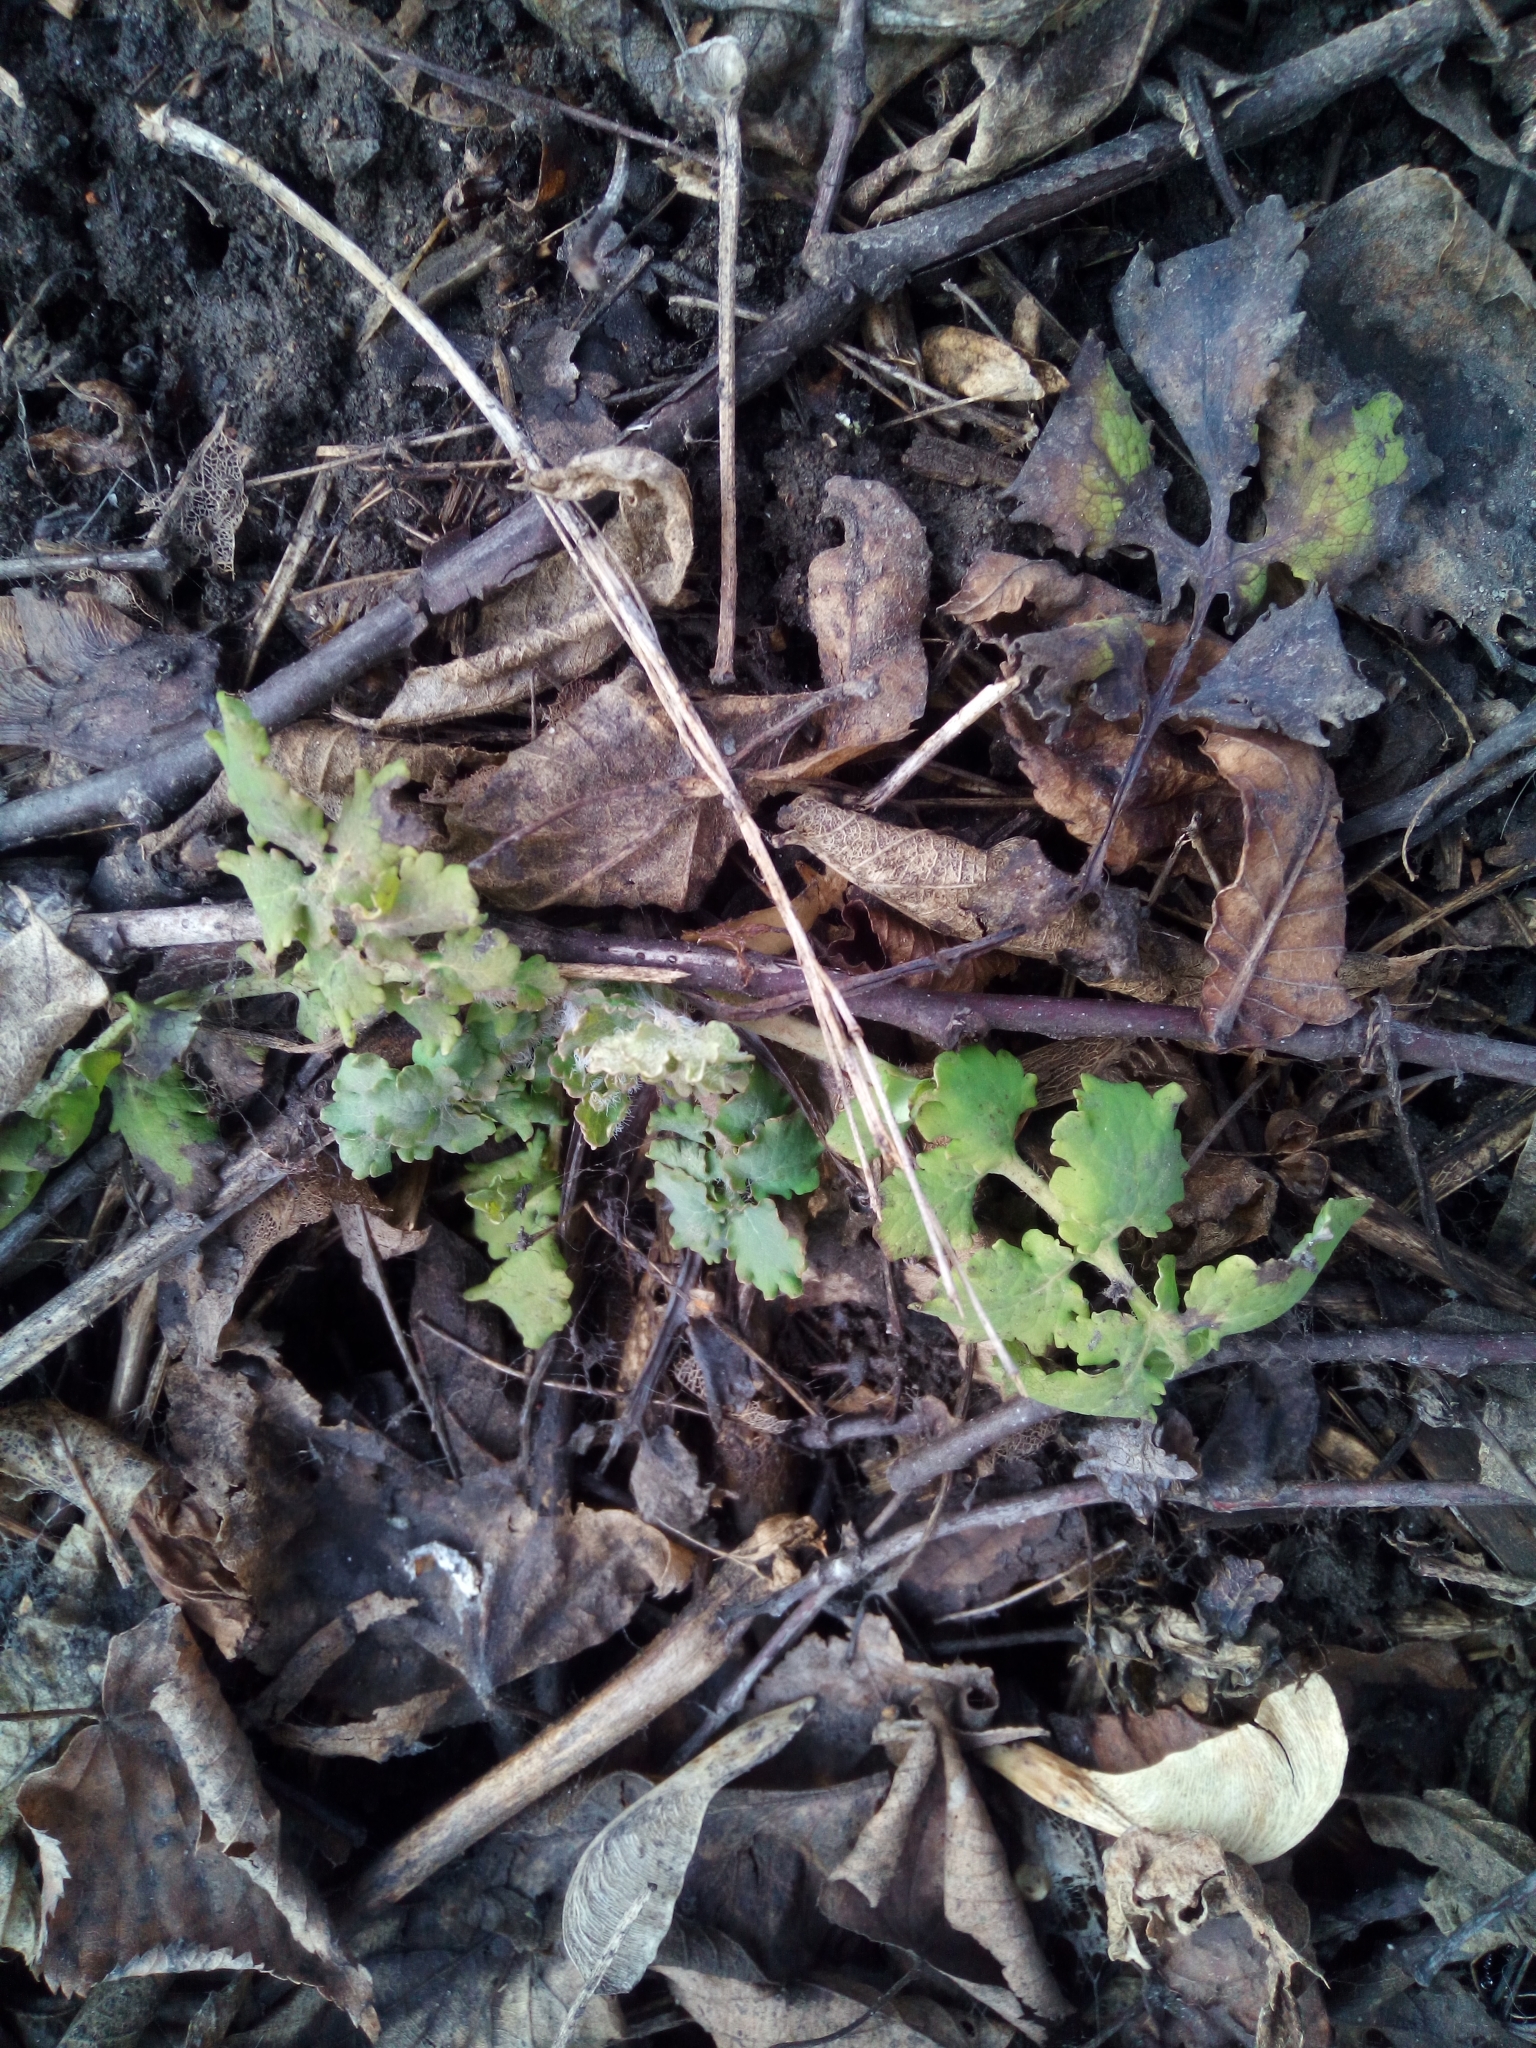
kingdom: Plantae
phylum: Tracheophyta
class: Magnoliopsida
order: Ranunculales
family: Papaveraceae
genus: Chelidonium
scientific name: Chelidonium majus
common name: Greater celandine
